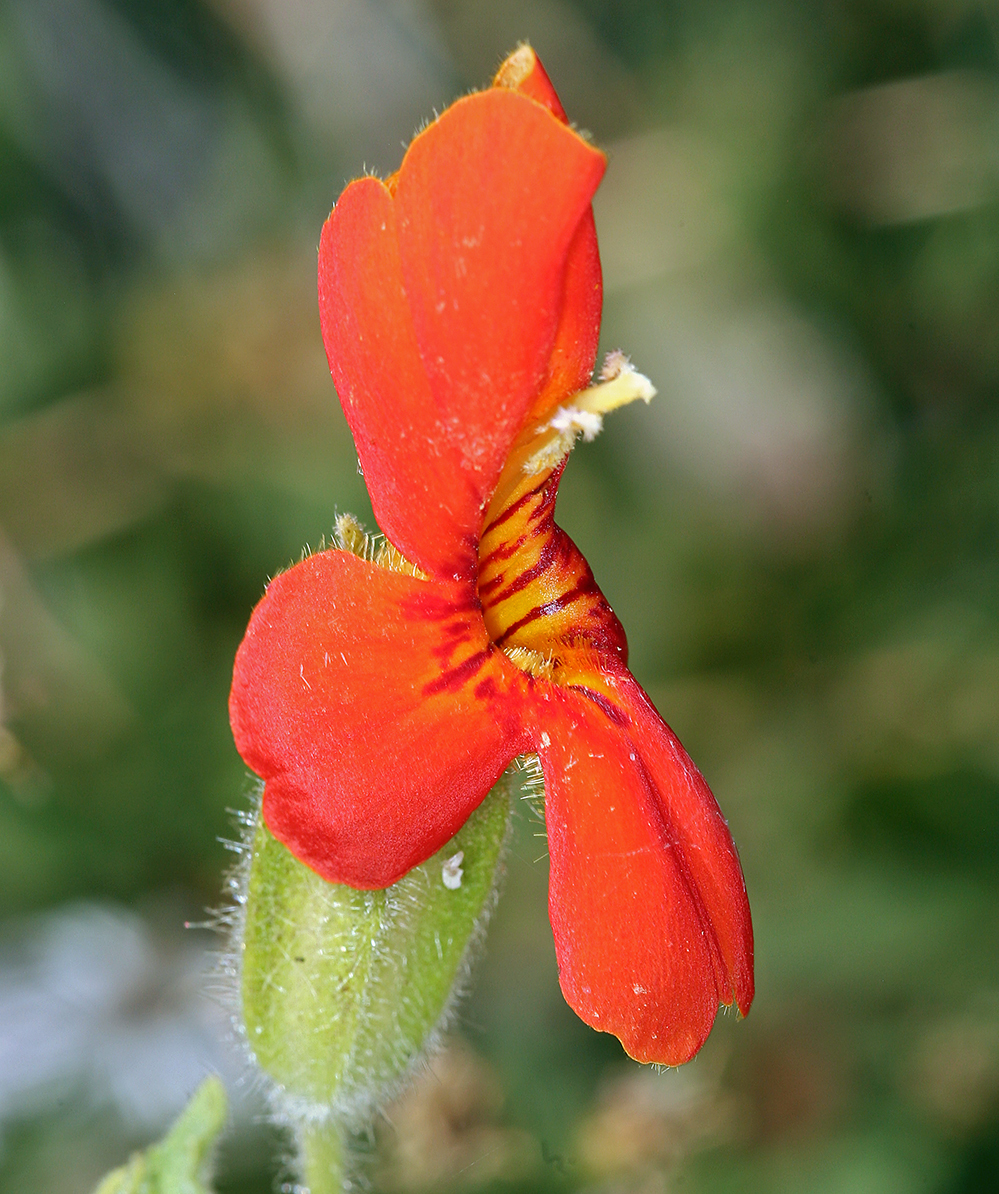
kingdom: Plantae
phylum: Tracheophyta
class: Magnoliopsida
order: Lamiales
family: Phrymaceae
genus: Erythranthe
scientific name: Erythranthe cardinalis
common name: Scarlet monkey-flower
